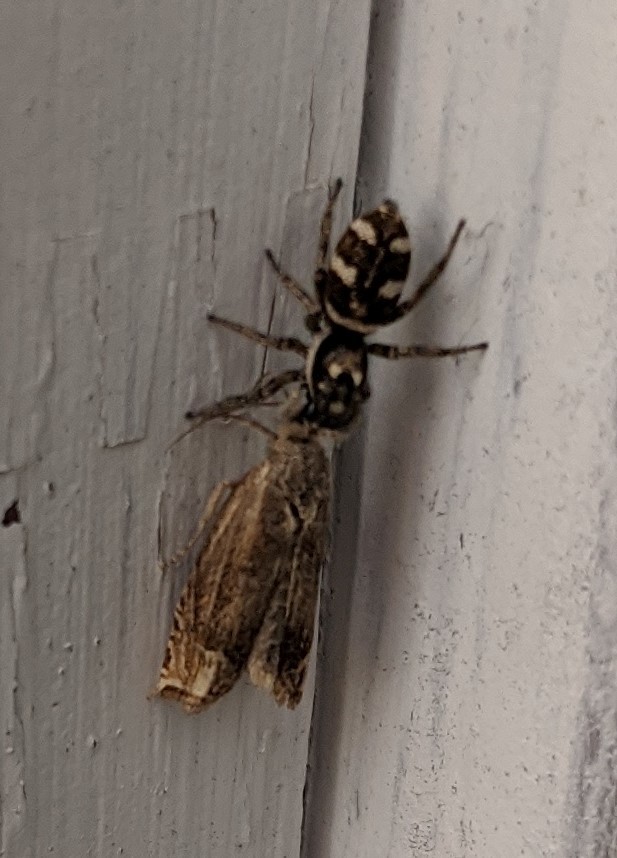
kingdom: Animalia
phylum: Arthropoda
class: Arachnida
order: Araneae
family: Salticidae
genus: Salticus
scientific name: Salticus scenicus
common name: Zebra jumper
